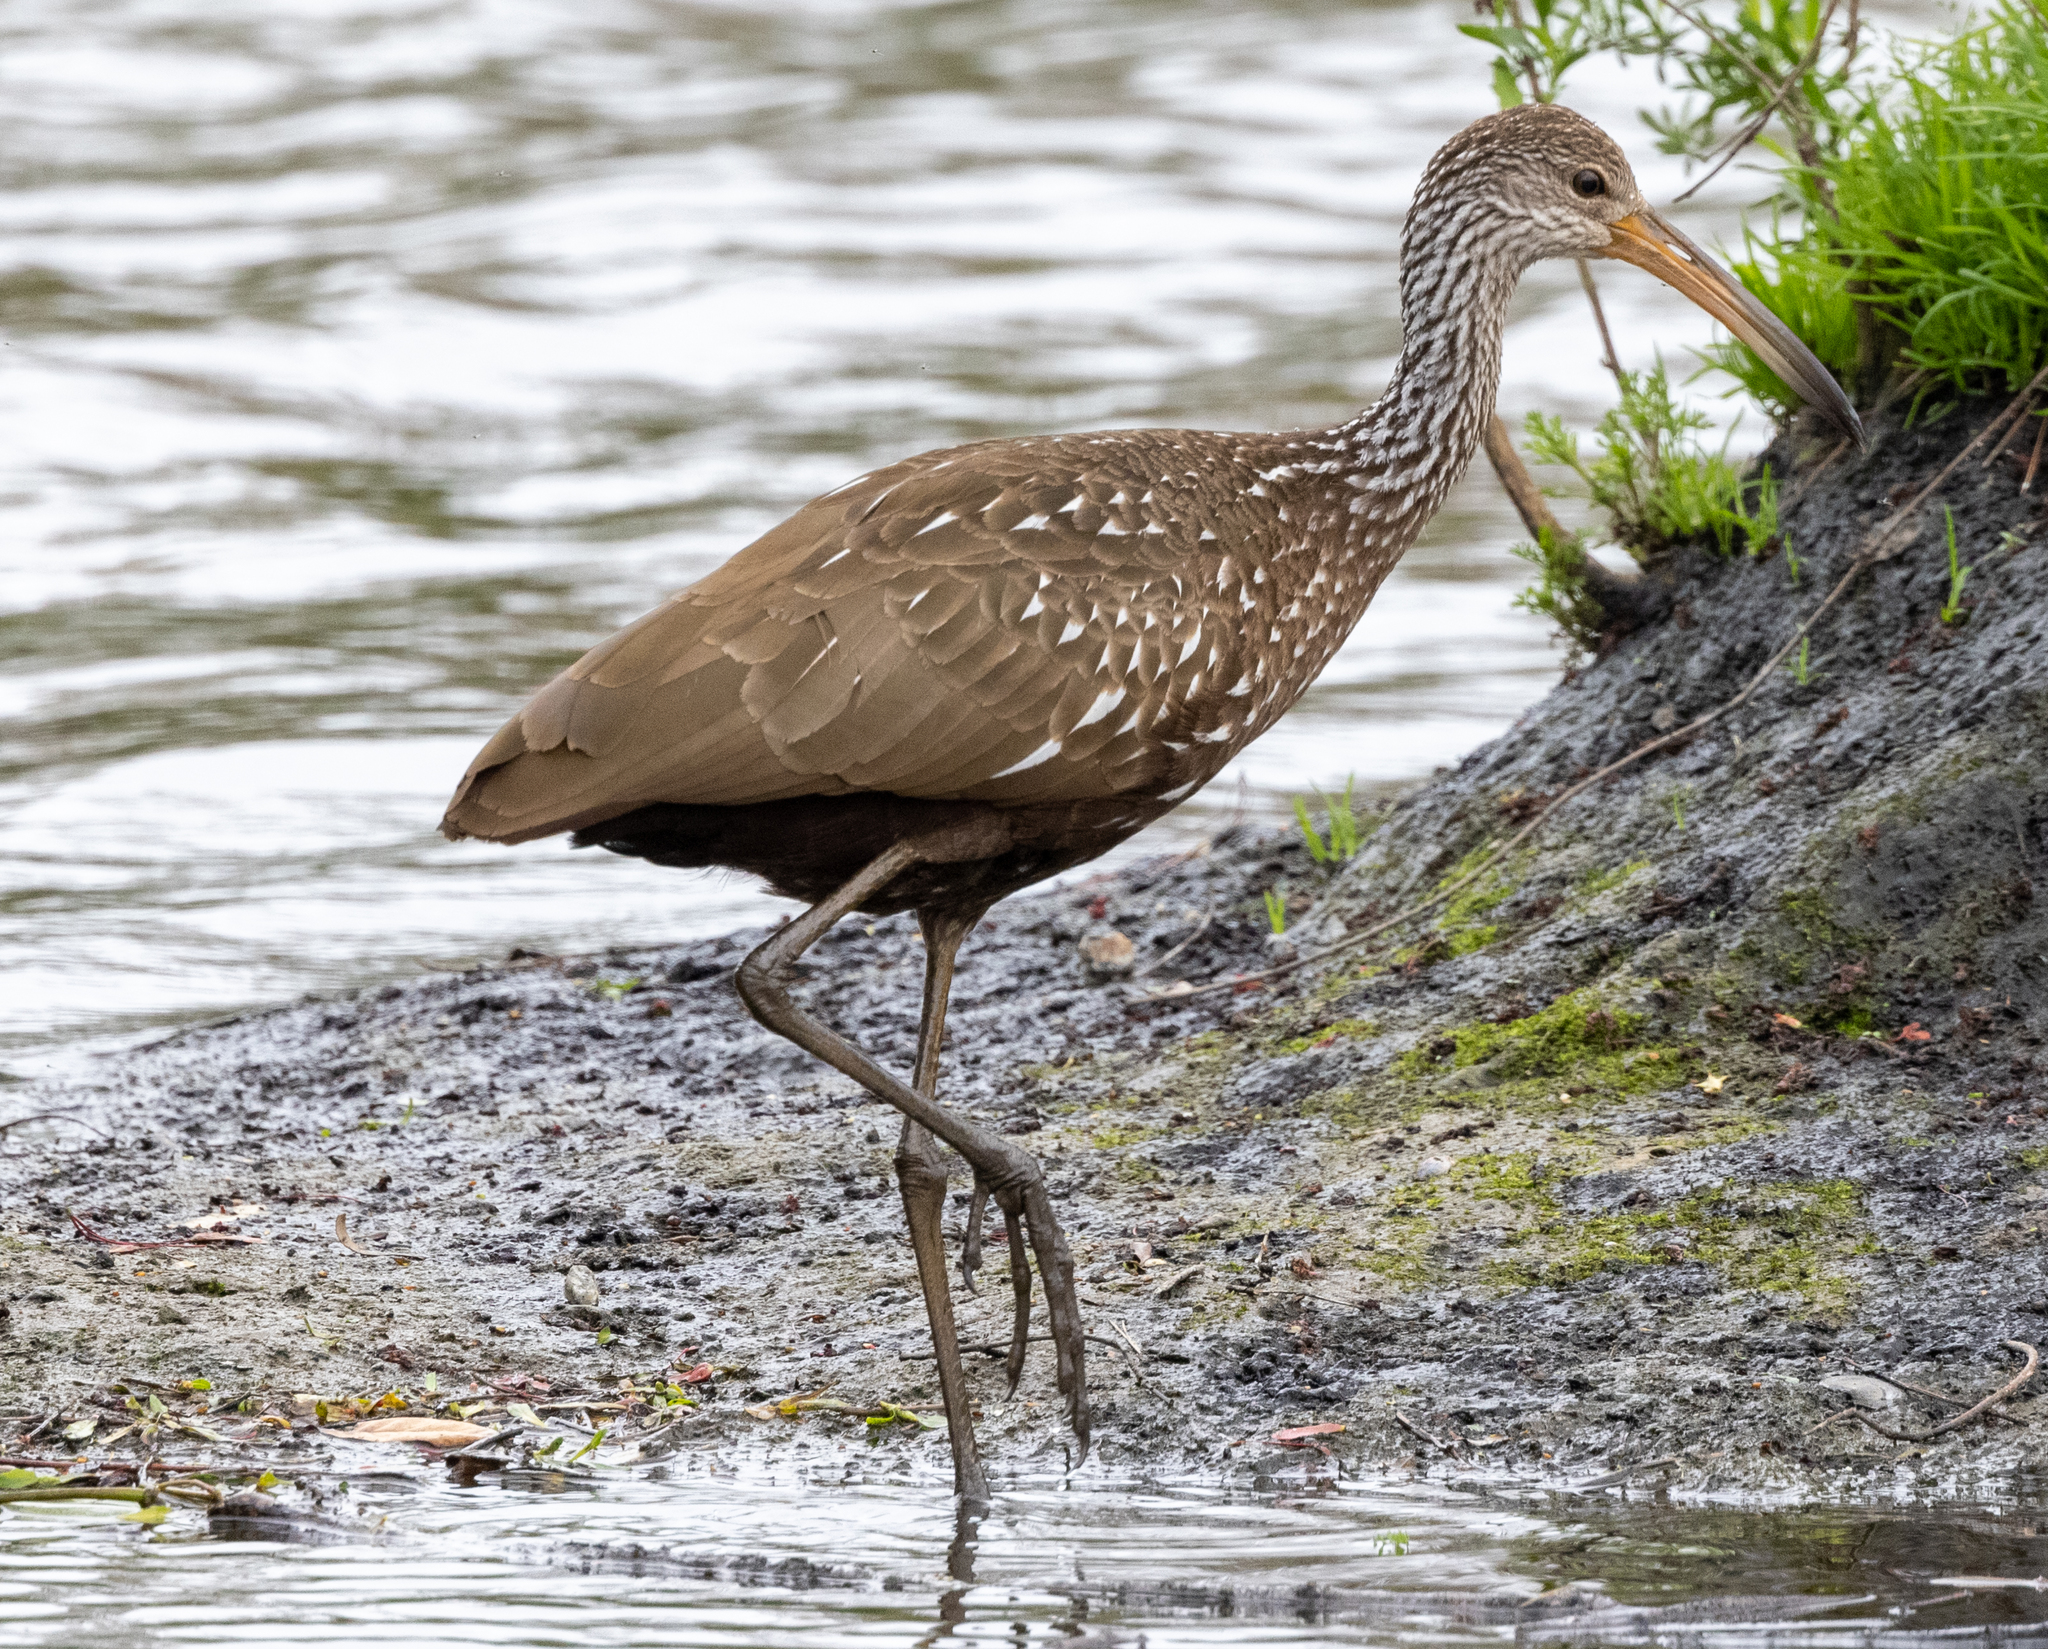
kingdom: Animalia
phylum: Chordata
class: Aves
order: Gruiformes
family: Aramidae
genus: Aramus
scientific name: Aramus guarauna
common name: Limpkin
